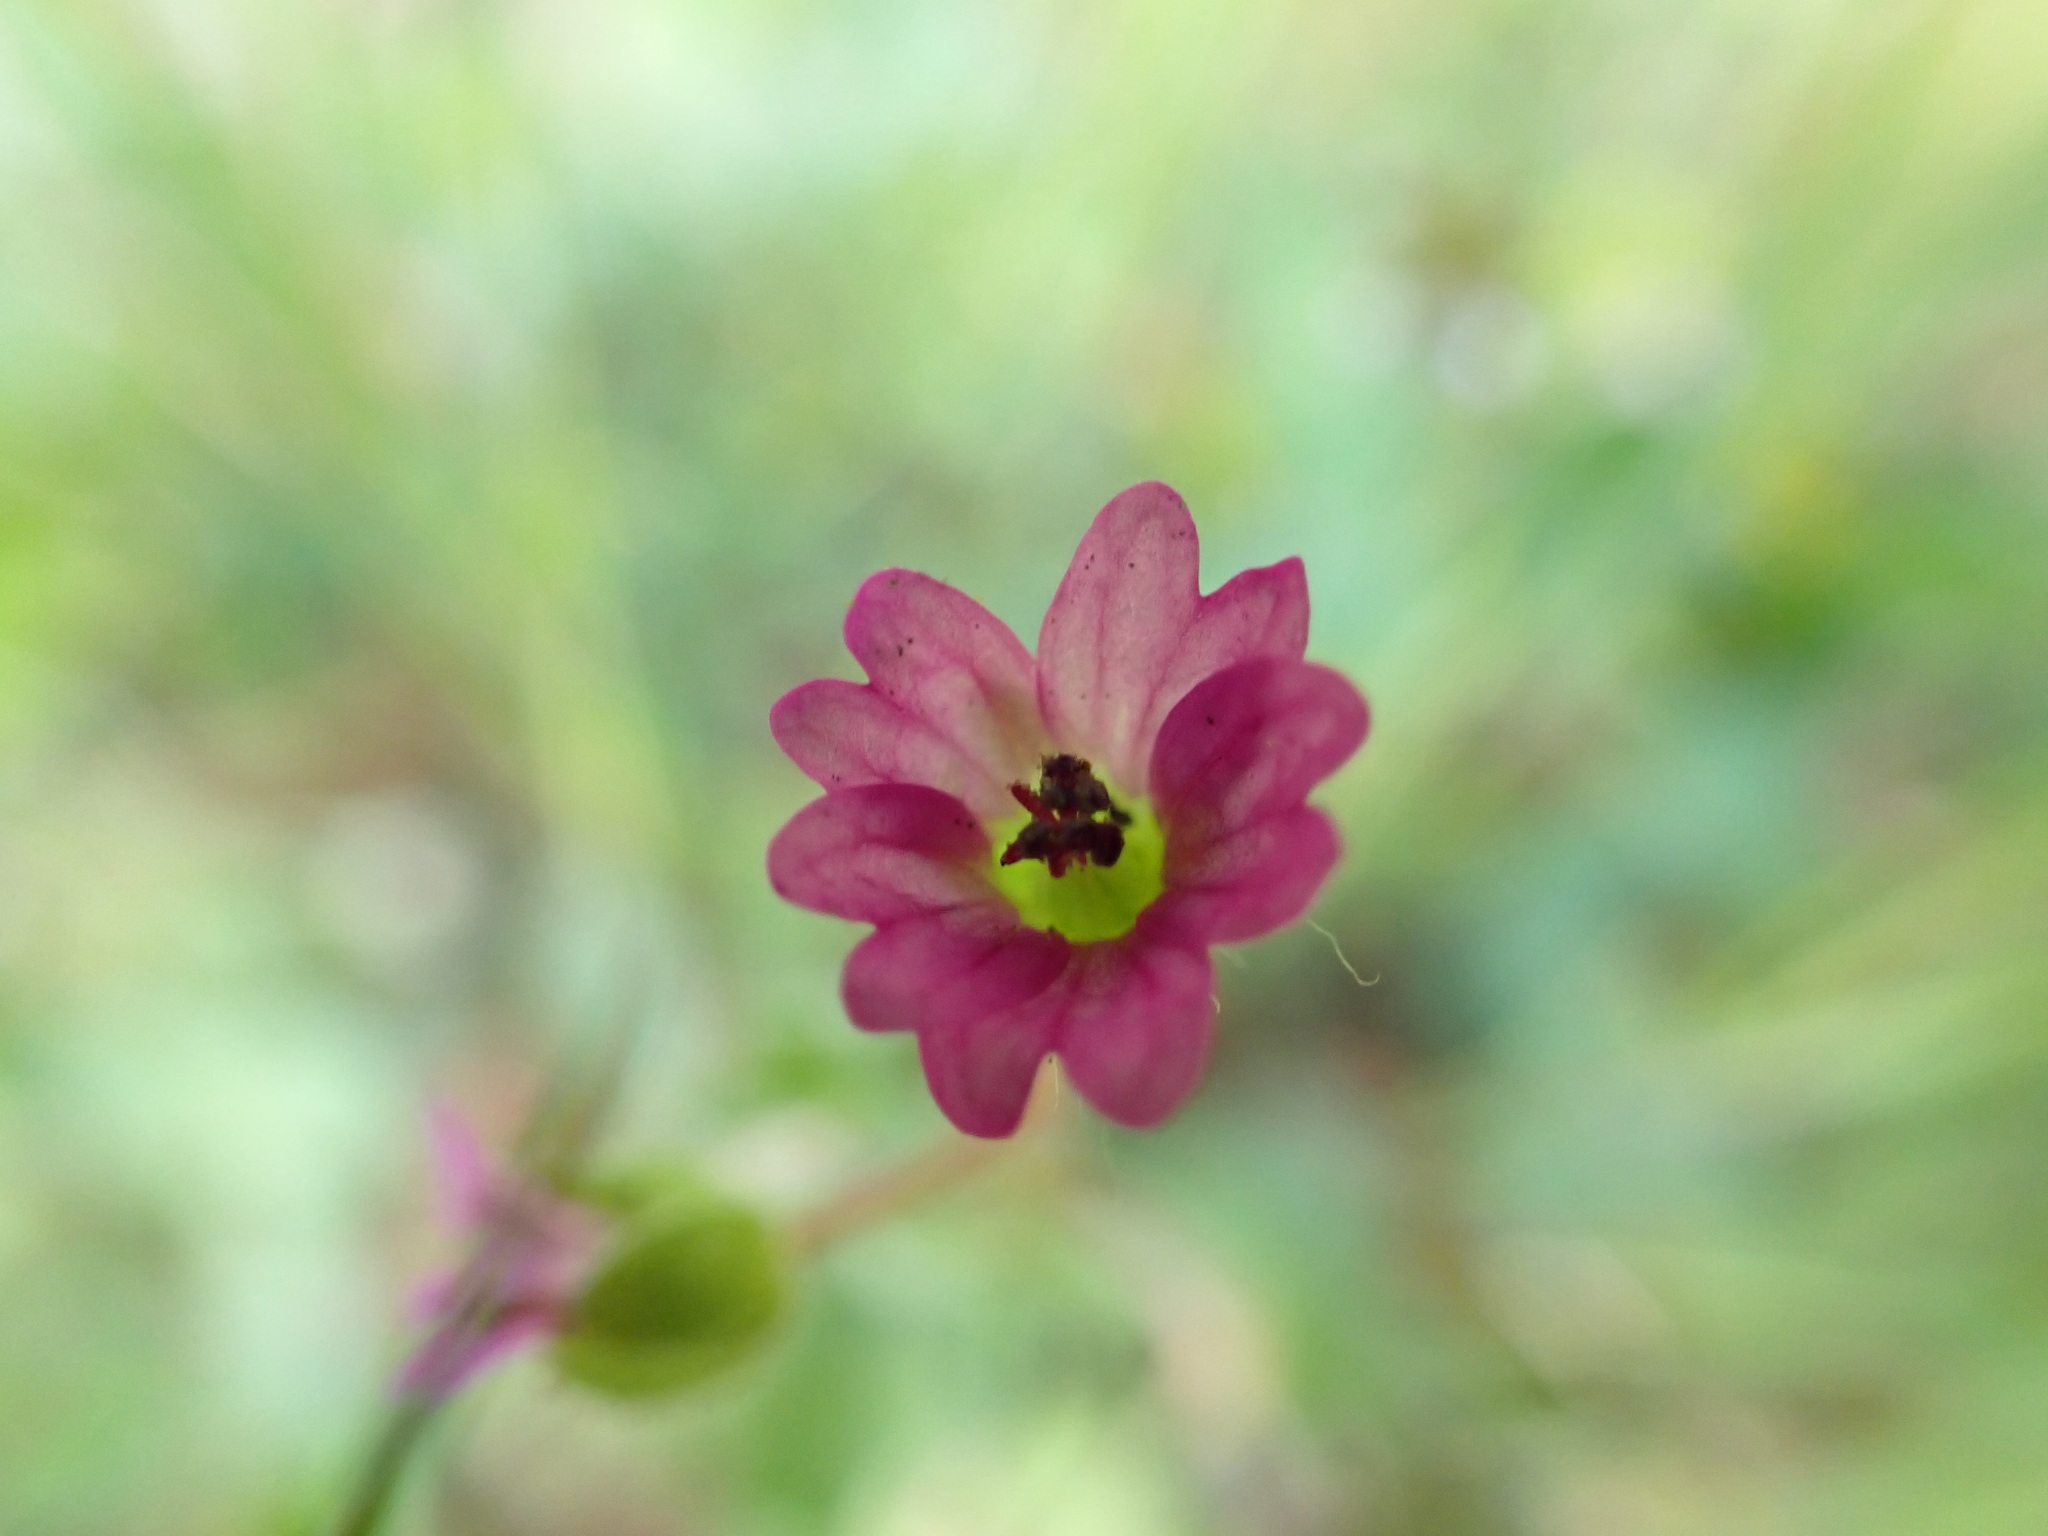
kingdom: Plantae
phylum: Tracheophyta
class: Magnoliopsida
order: Geraniales
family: Geraniaceae
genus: Geranium
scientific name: Geranium molle
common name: Dove's-foot crane's-bill
